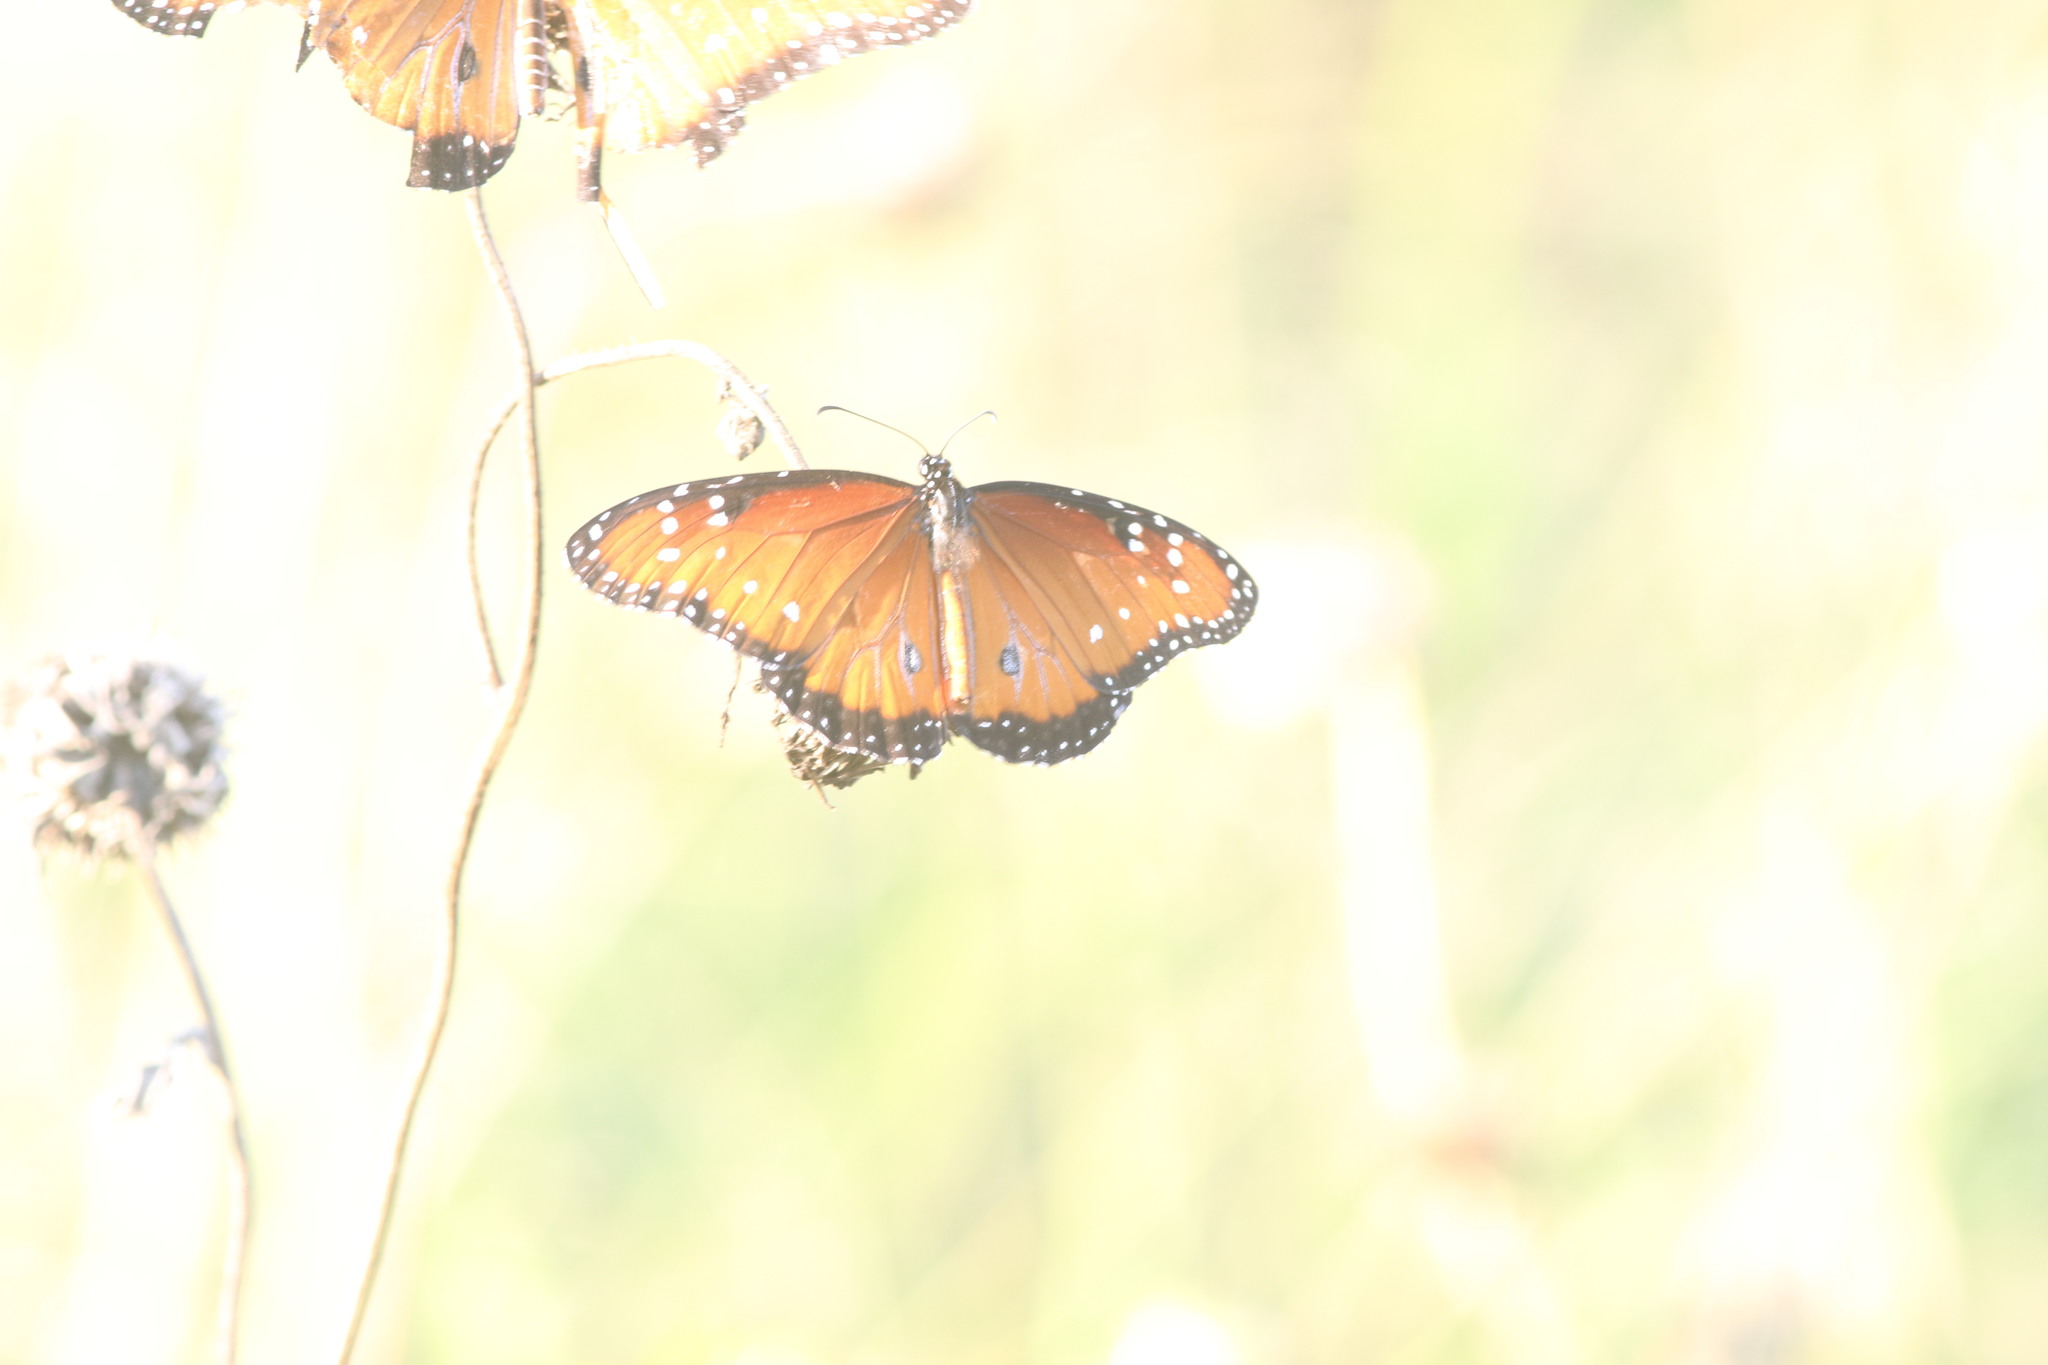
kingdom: Animalia
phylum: Arthropoda
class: Insecta
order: Lepidoptera
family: Nymphalidae
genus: Danaus
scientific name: Danaus gilippus
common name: Queen
